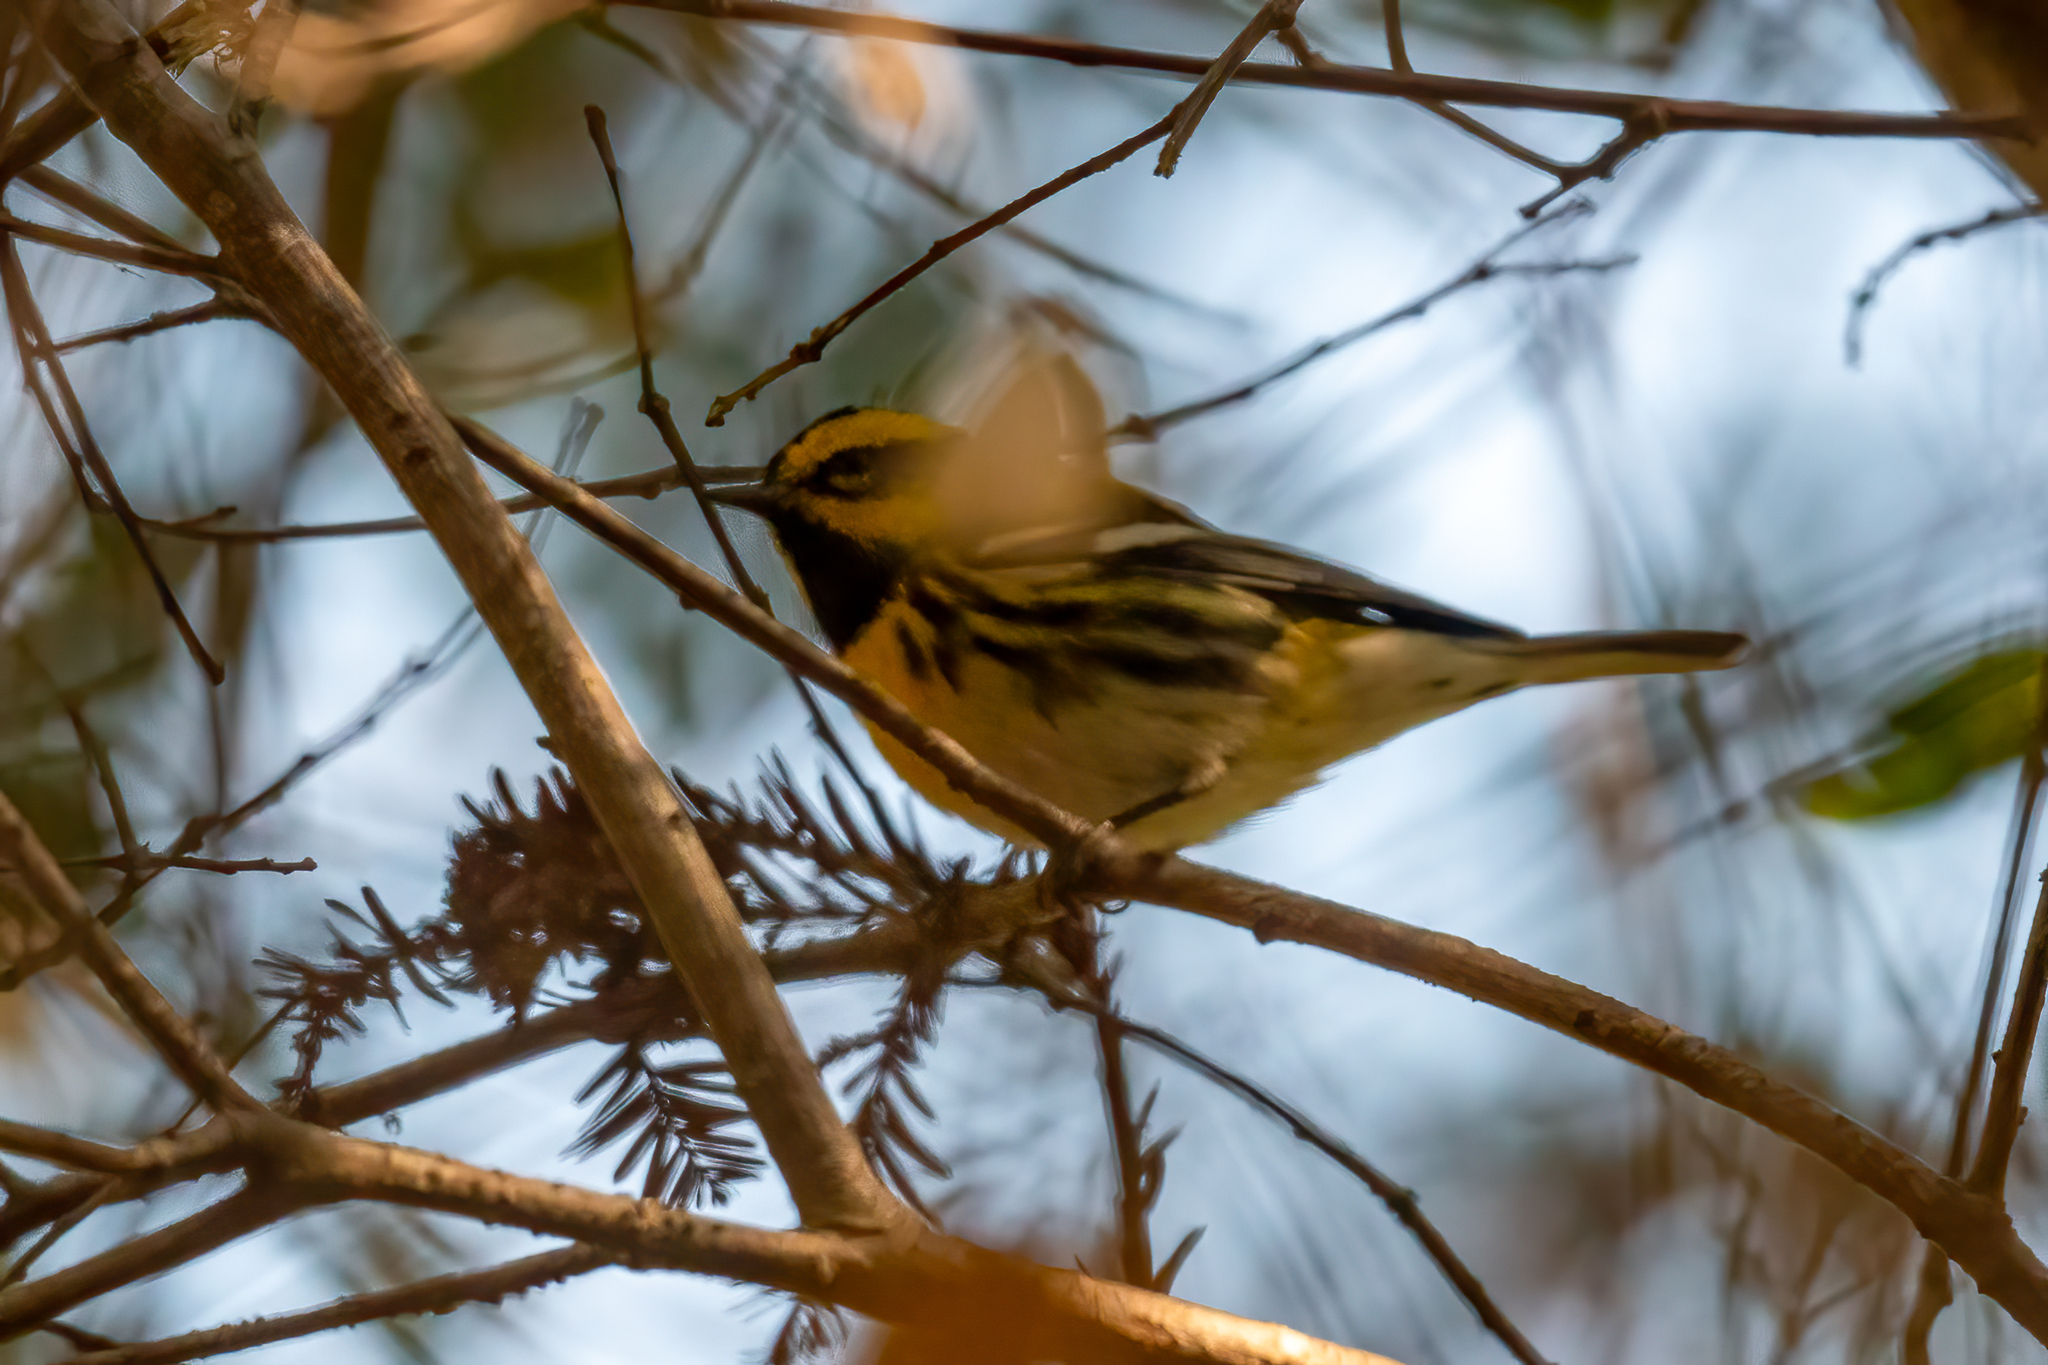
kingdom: Animalia
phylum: Chordata
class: Aves
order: Passeriformes
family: Parulidae
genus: Setophaga
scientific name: Setophaga townsendi
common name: Townsend's warbler
